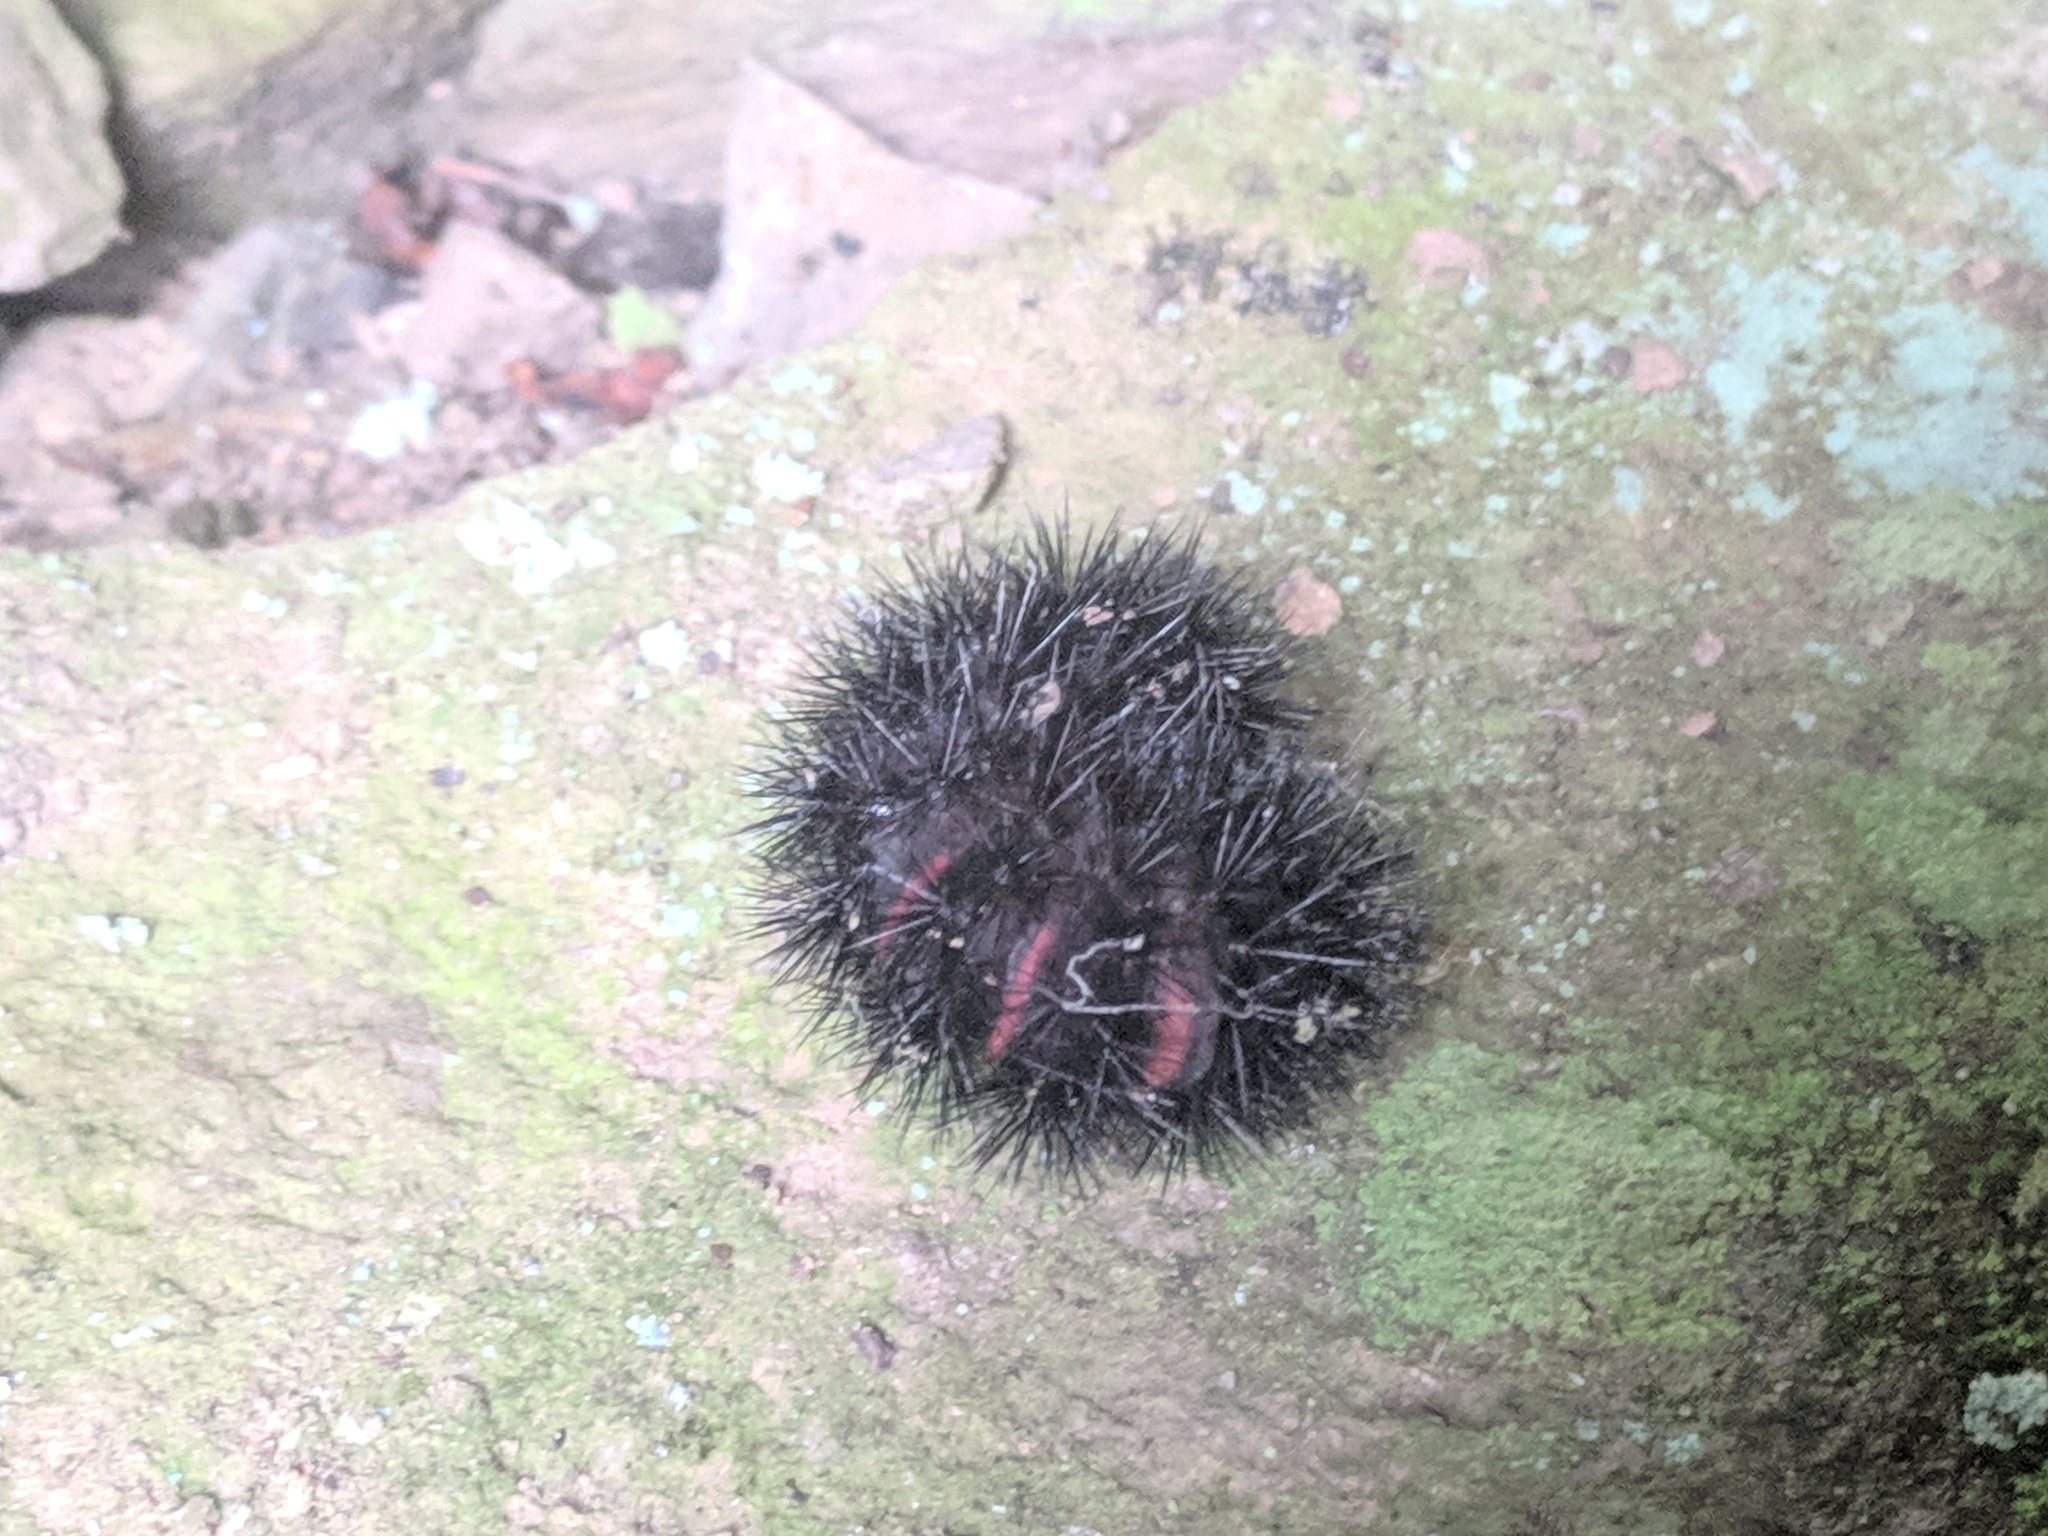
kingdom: Animalia
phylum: Arthropoda
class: Insecta
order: Lepidoptera
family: Erebidae
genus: Hypercompe
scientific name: Hypercompe scribonia
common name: Giant leopard moth
